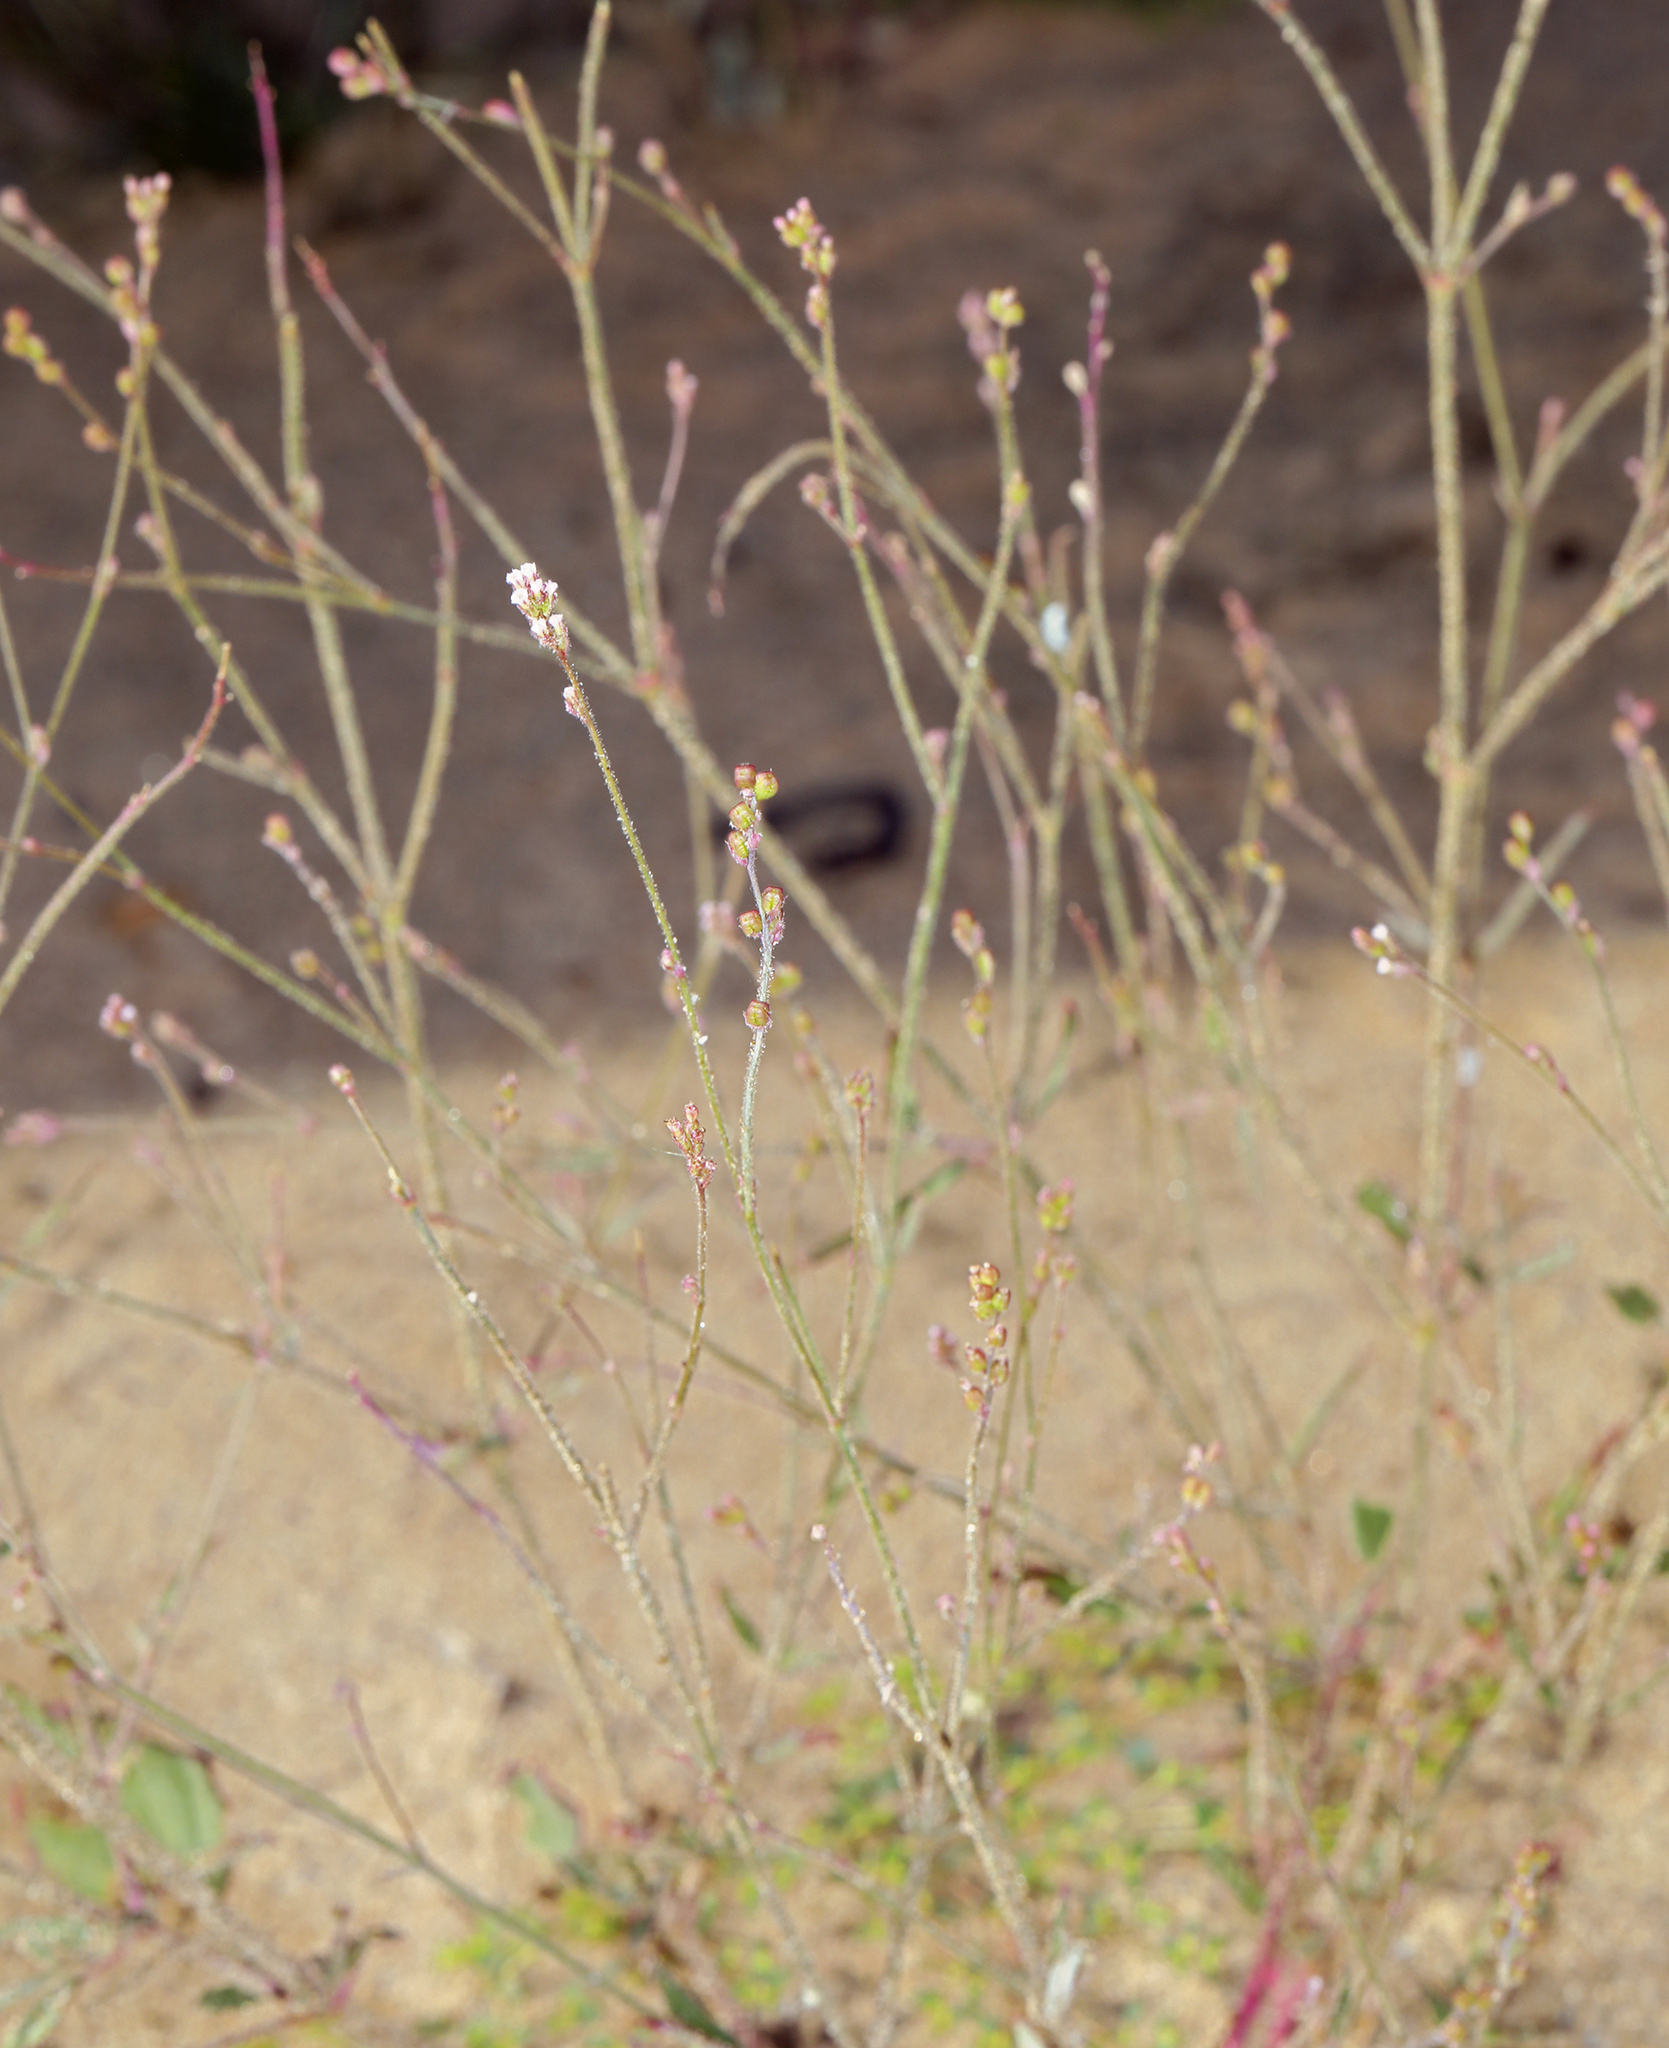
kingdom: Plantae
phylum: Tracheophyta
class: Magnoliopsida
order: Caryophyllales
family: Nyctaginaceae
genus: Boerhavia
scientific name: Boerhavia wrightii
